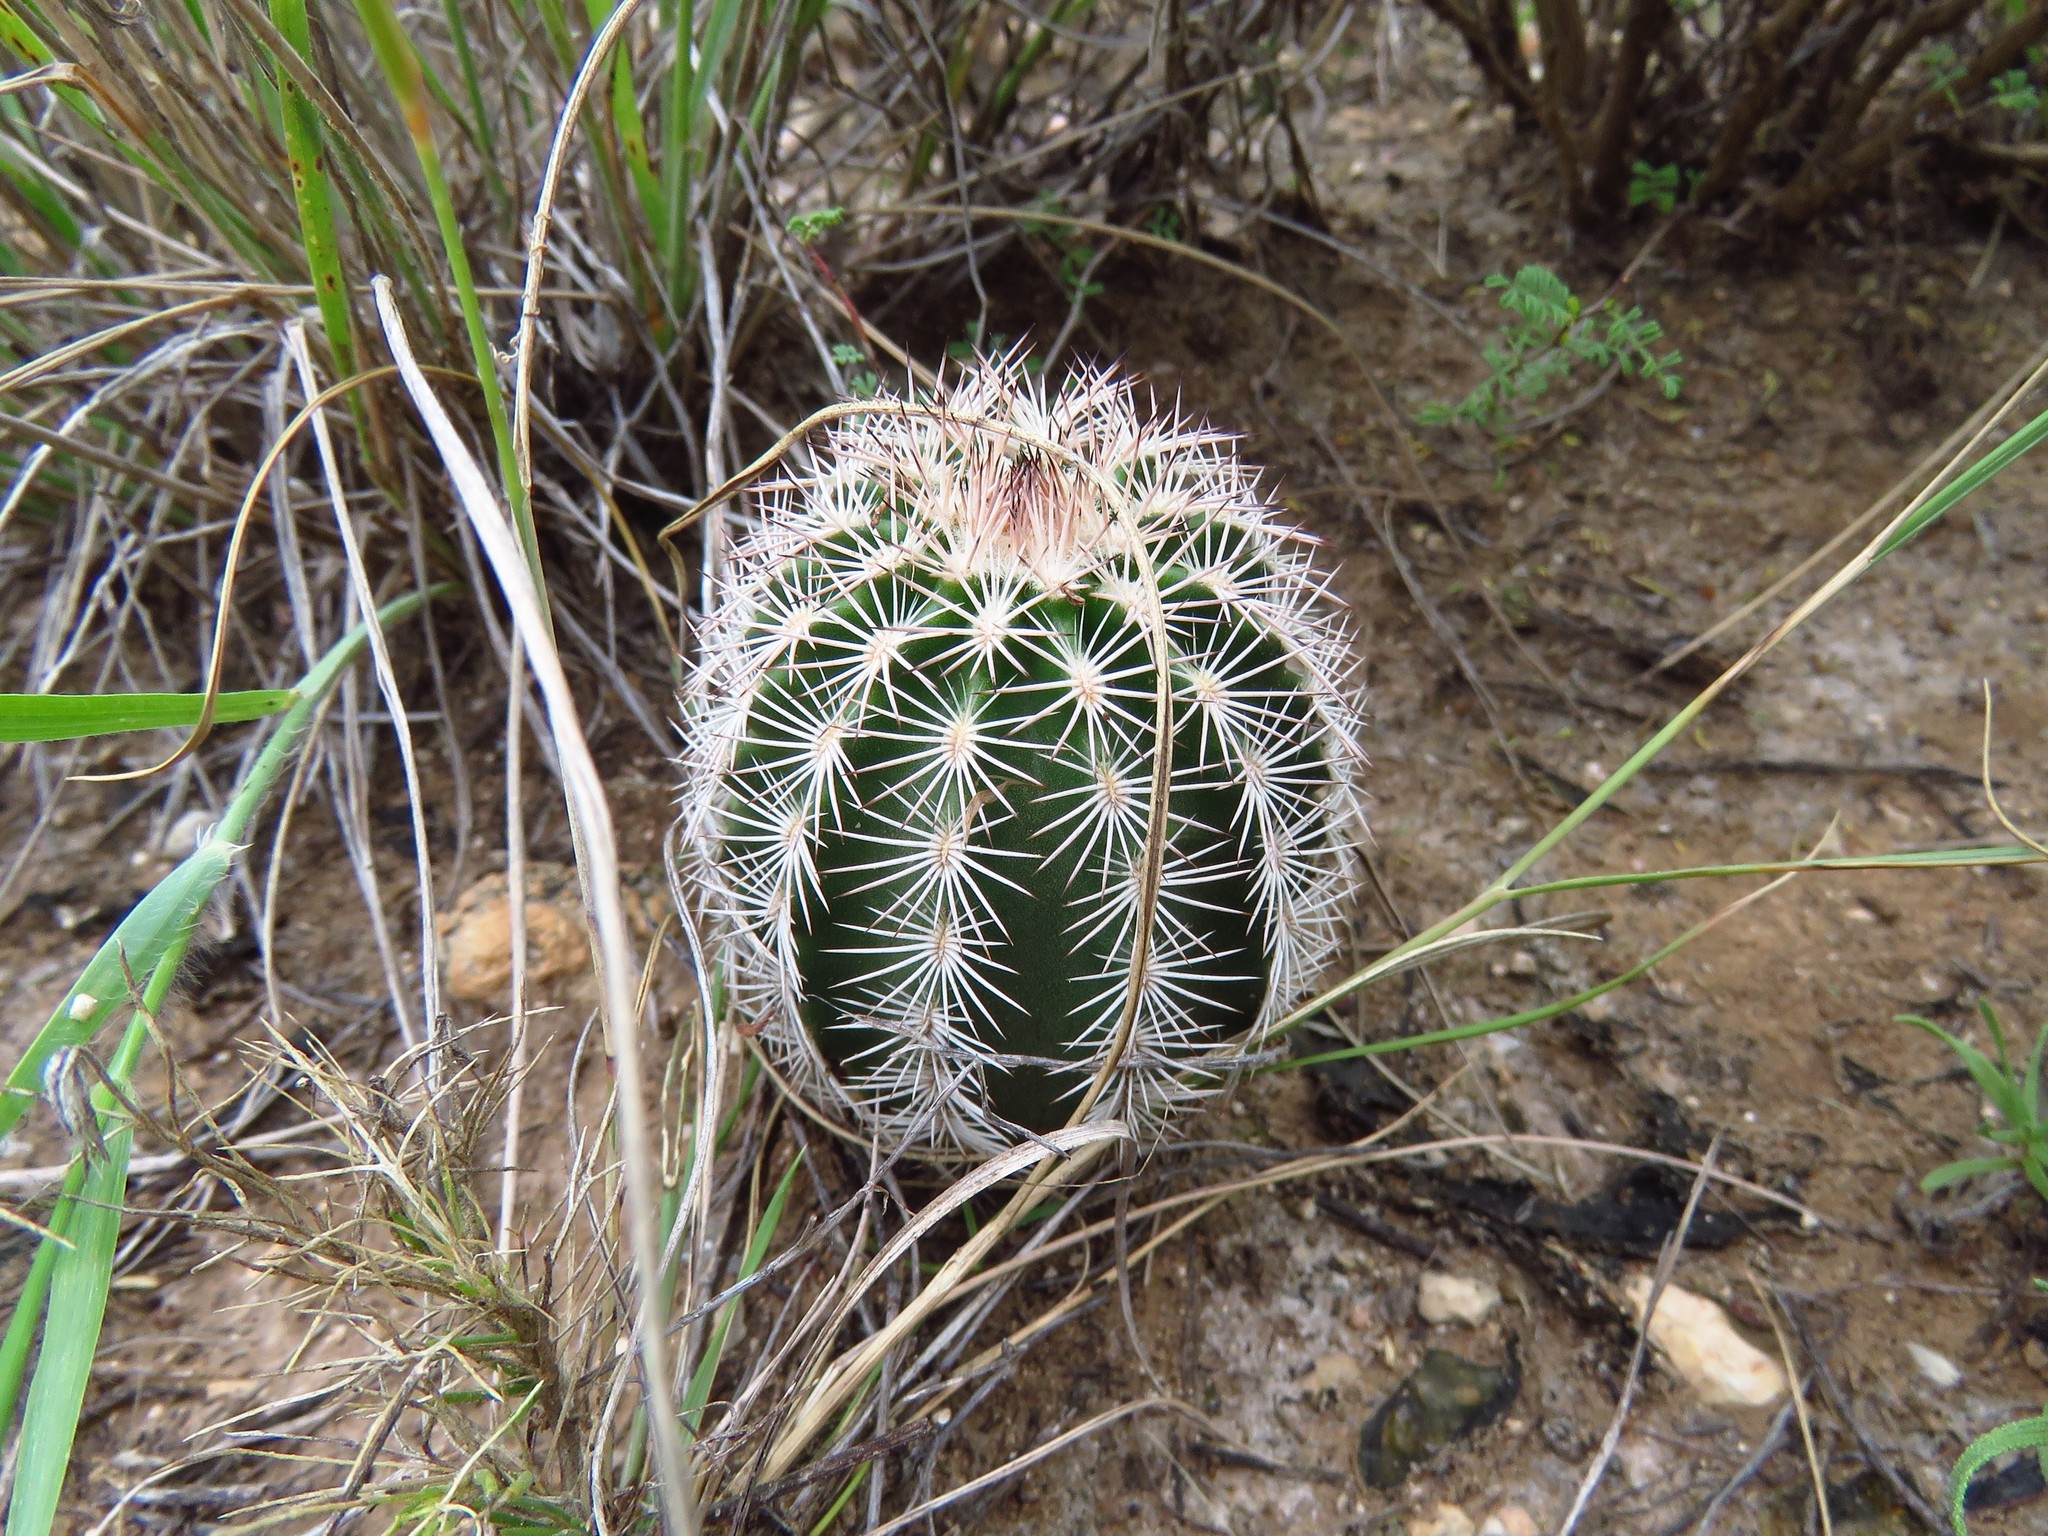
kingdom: Plantae
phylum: Tracheophyta
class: Magnoliopsida
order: Caryophyllales
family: Cactaceae
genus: Echinocereus
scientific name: Echinocereus reichenbachii
